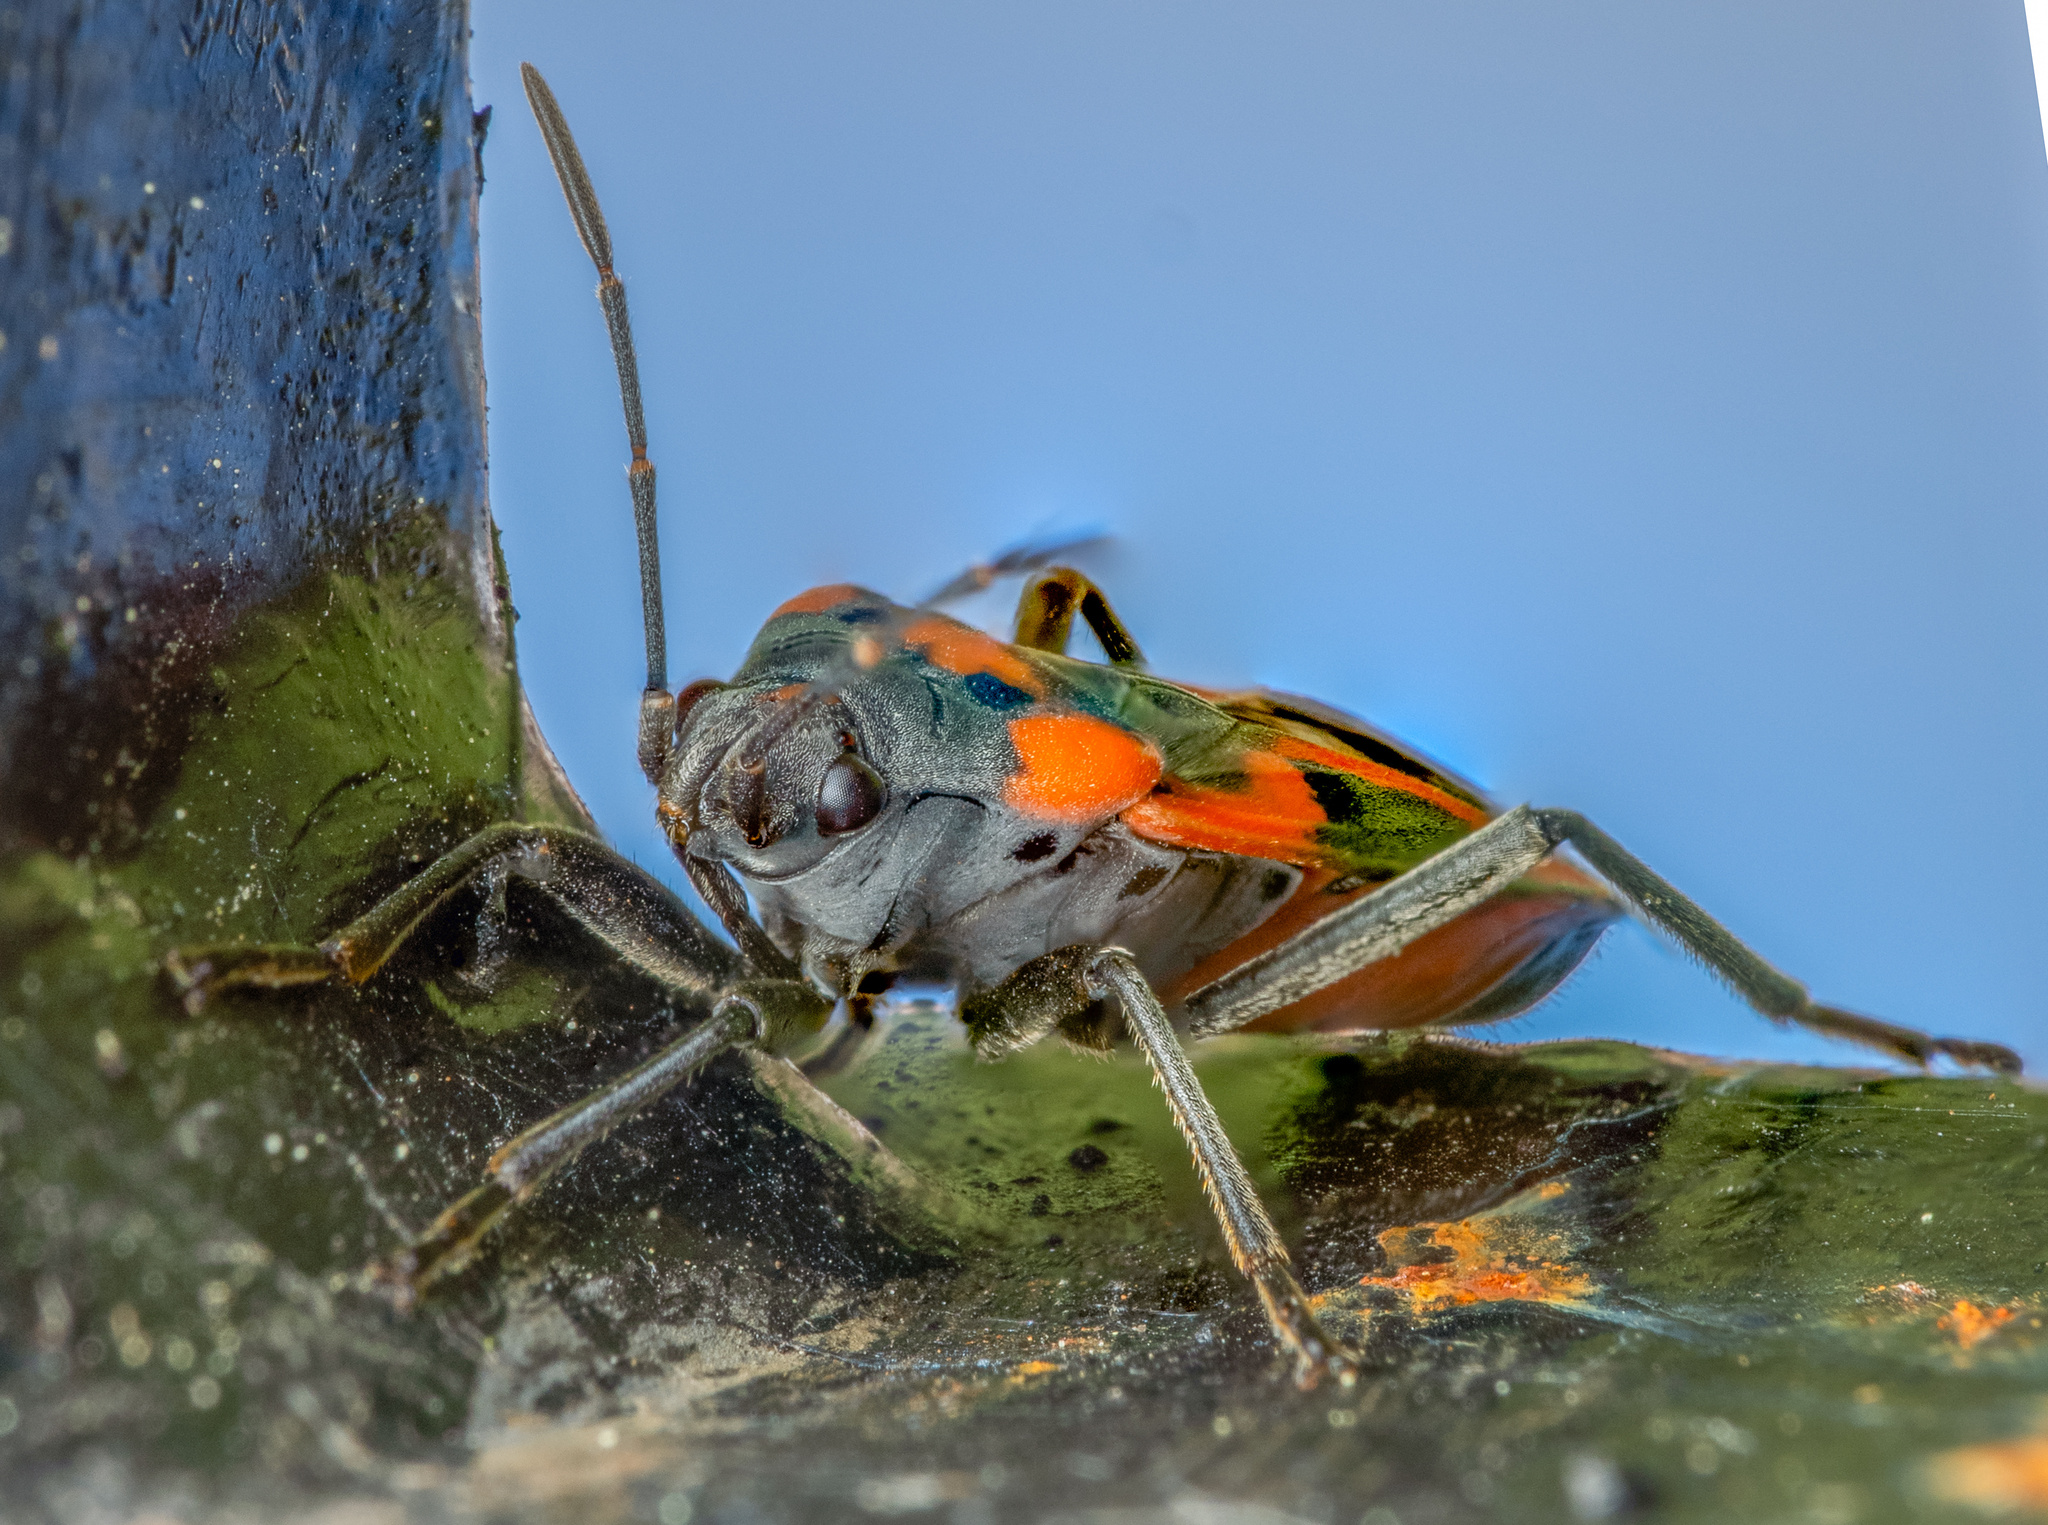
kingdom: Animalia
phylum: Arthropoda
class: Insecta
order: Hemiptera
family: Lygaeidae
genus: Lygaeus
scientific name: Lygaeus kalmii
